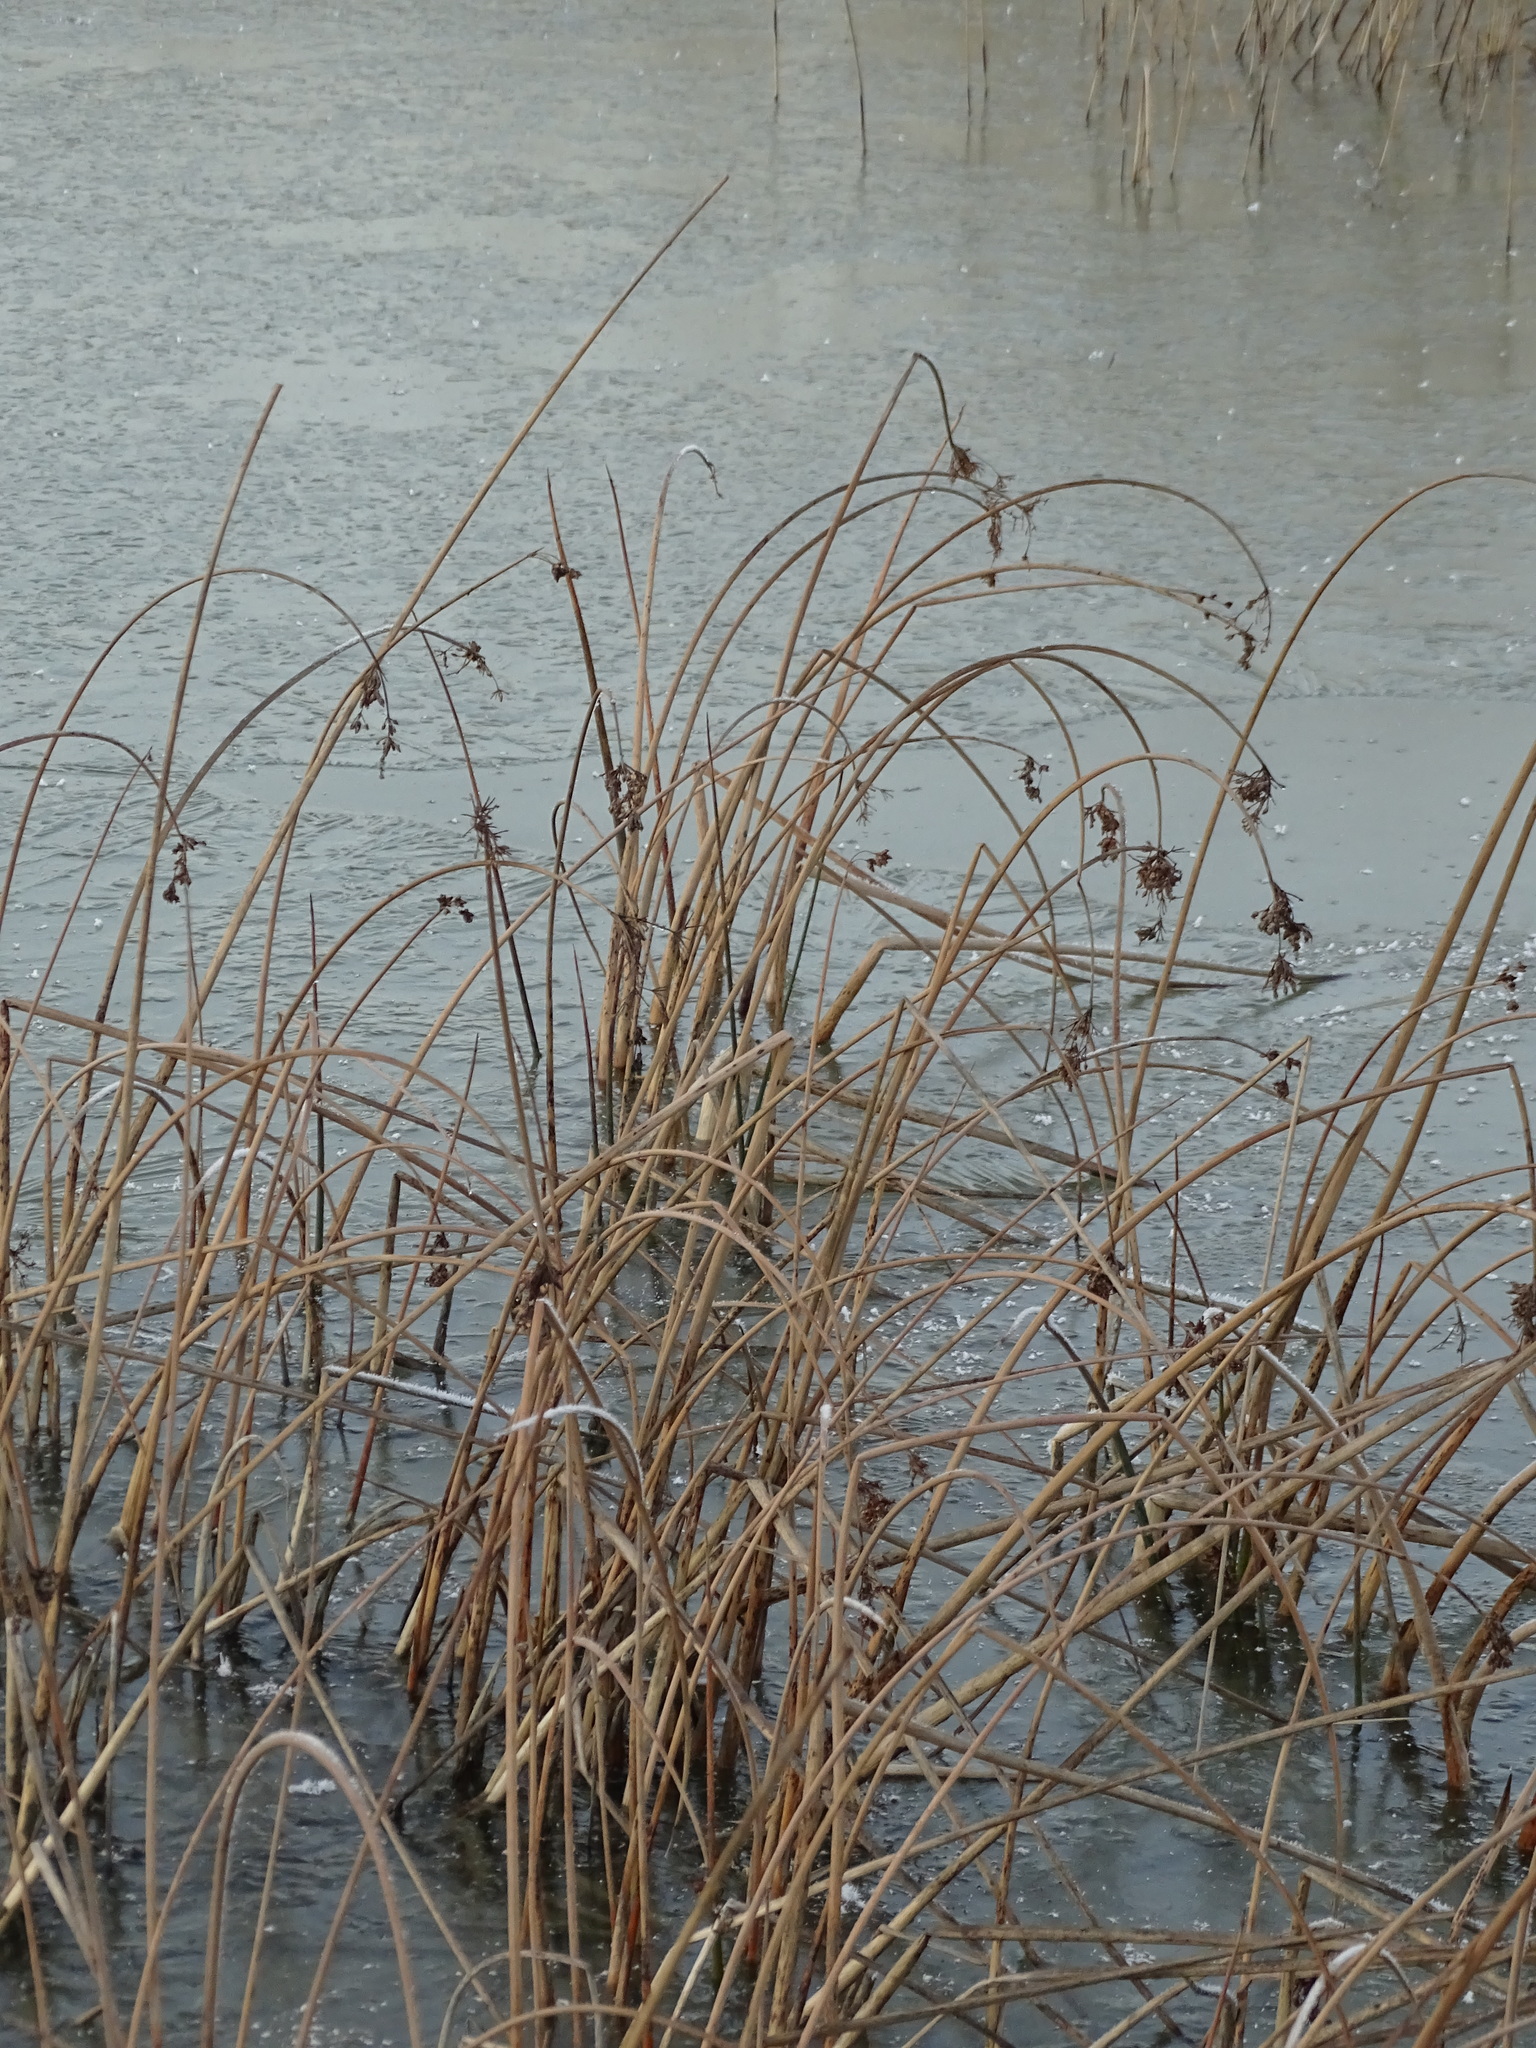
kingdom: Plantae
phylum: Tracheophyta
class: Liliopsida
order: Poales
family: Cyperaceae
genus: Schoenoplectus
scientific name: Schoenoplectus lacustris
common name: Common club-rush
